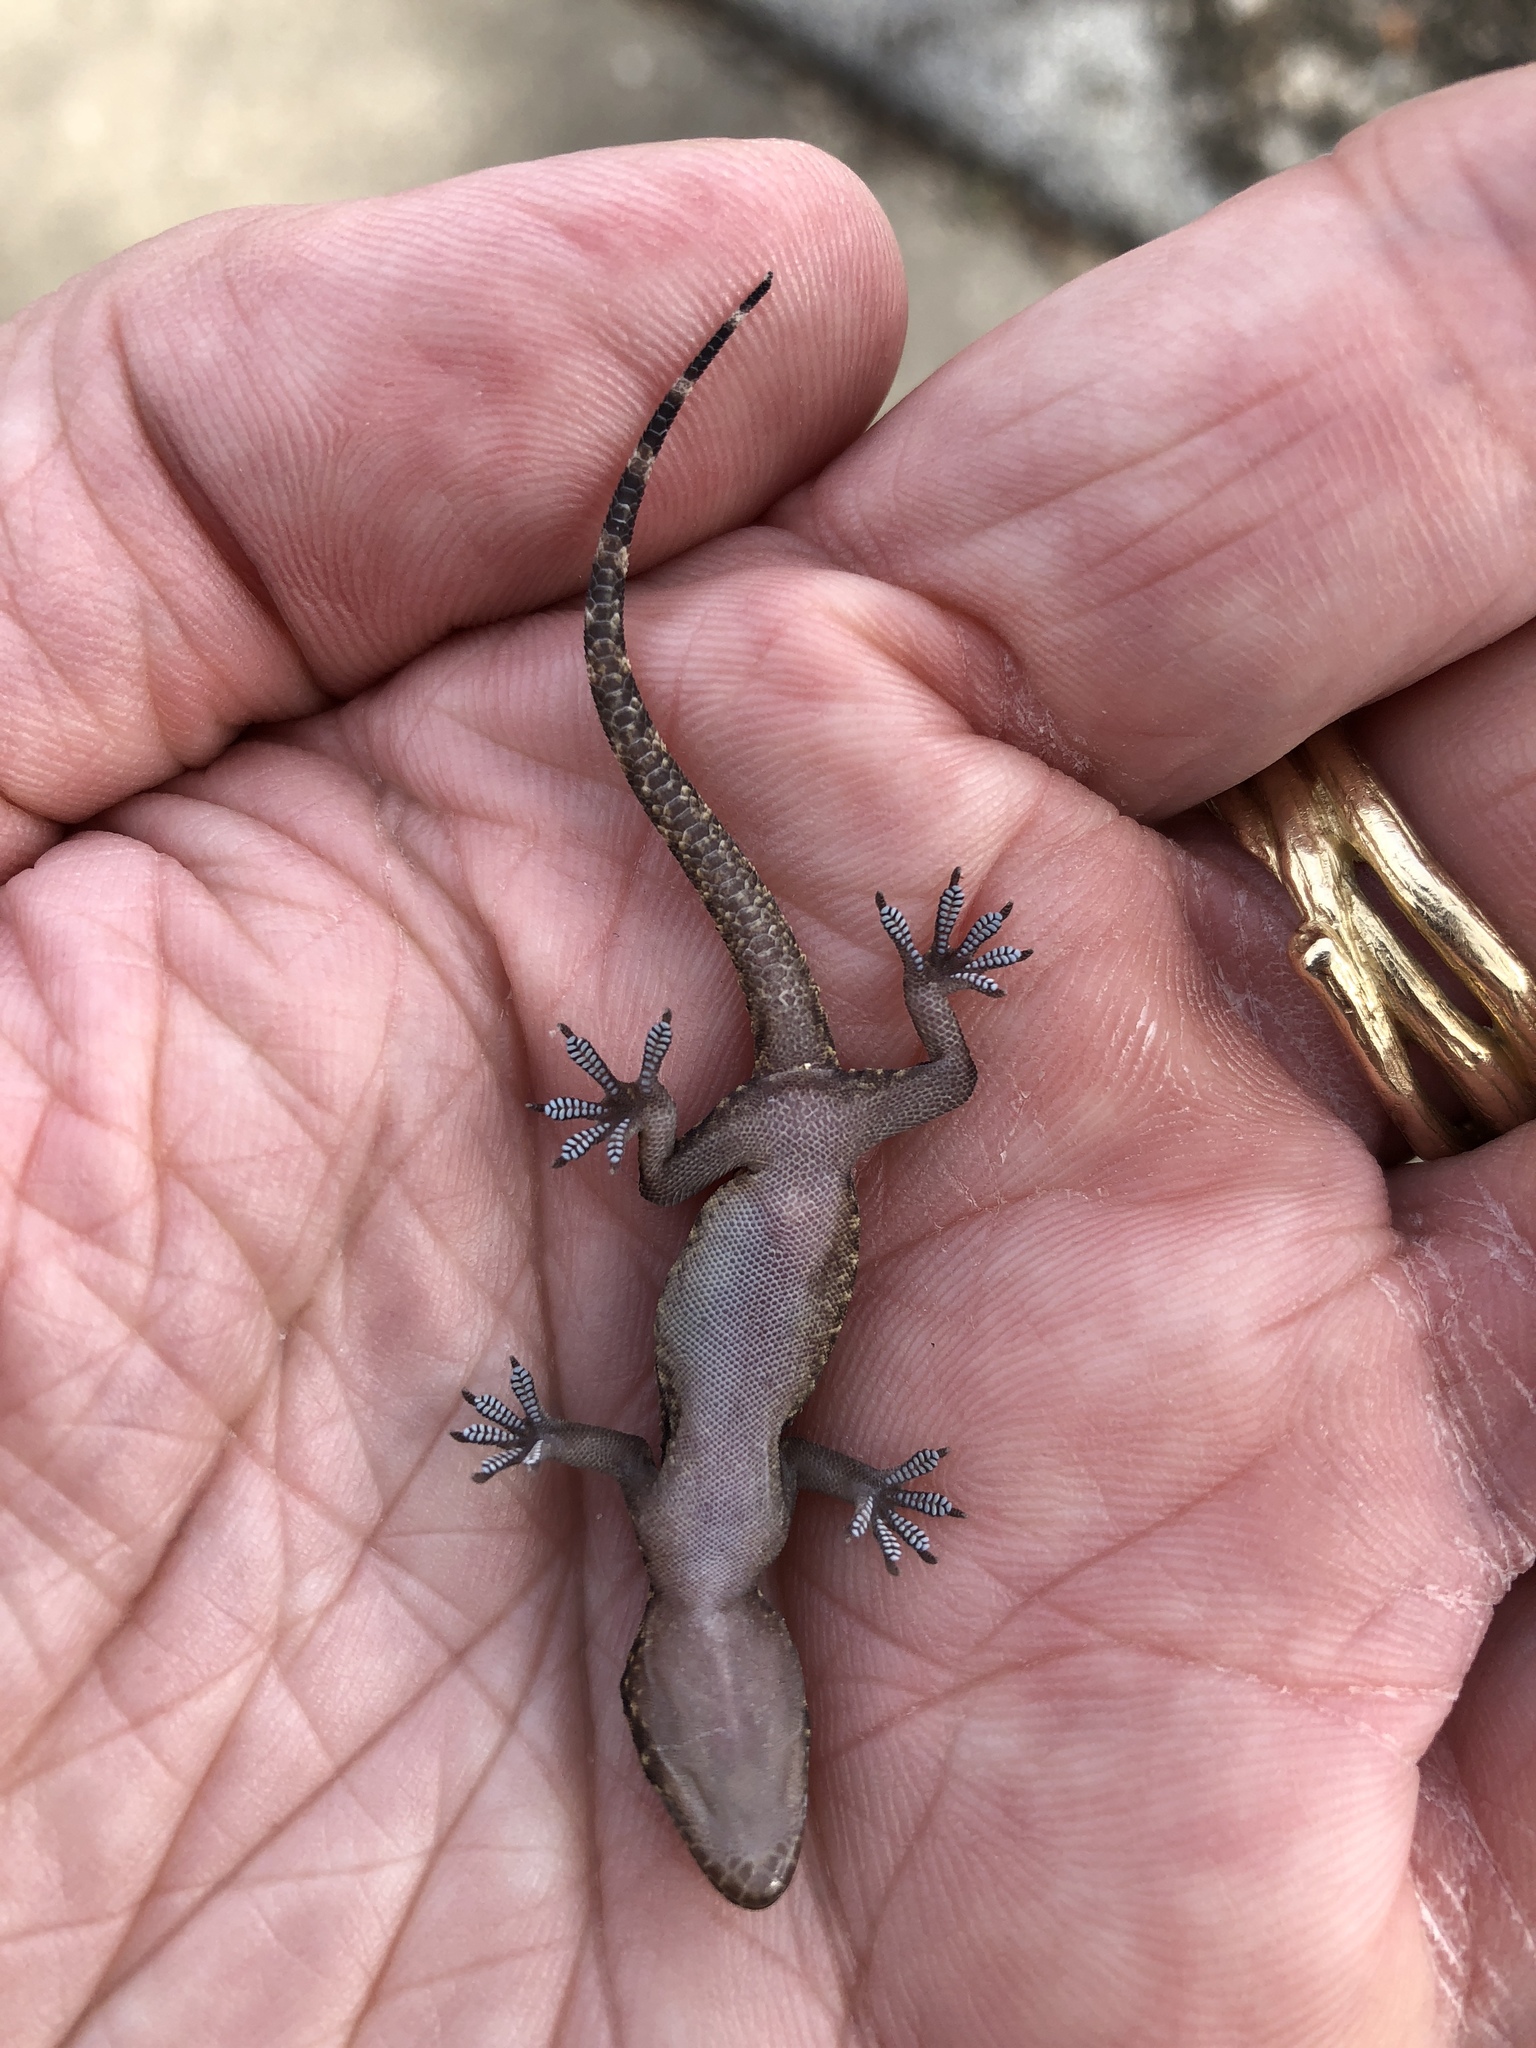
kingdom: Animalia
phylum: Chordata
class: Squamata
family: Gekkonidae
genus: Hemidactylus
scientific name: Hemidactylus turcicus
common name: Turkish gecko
